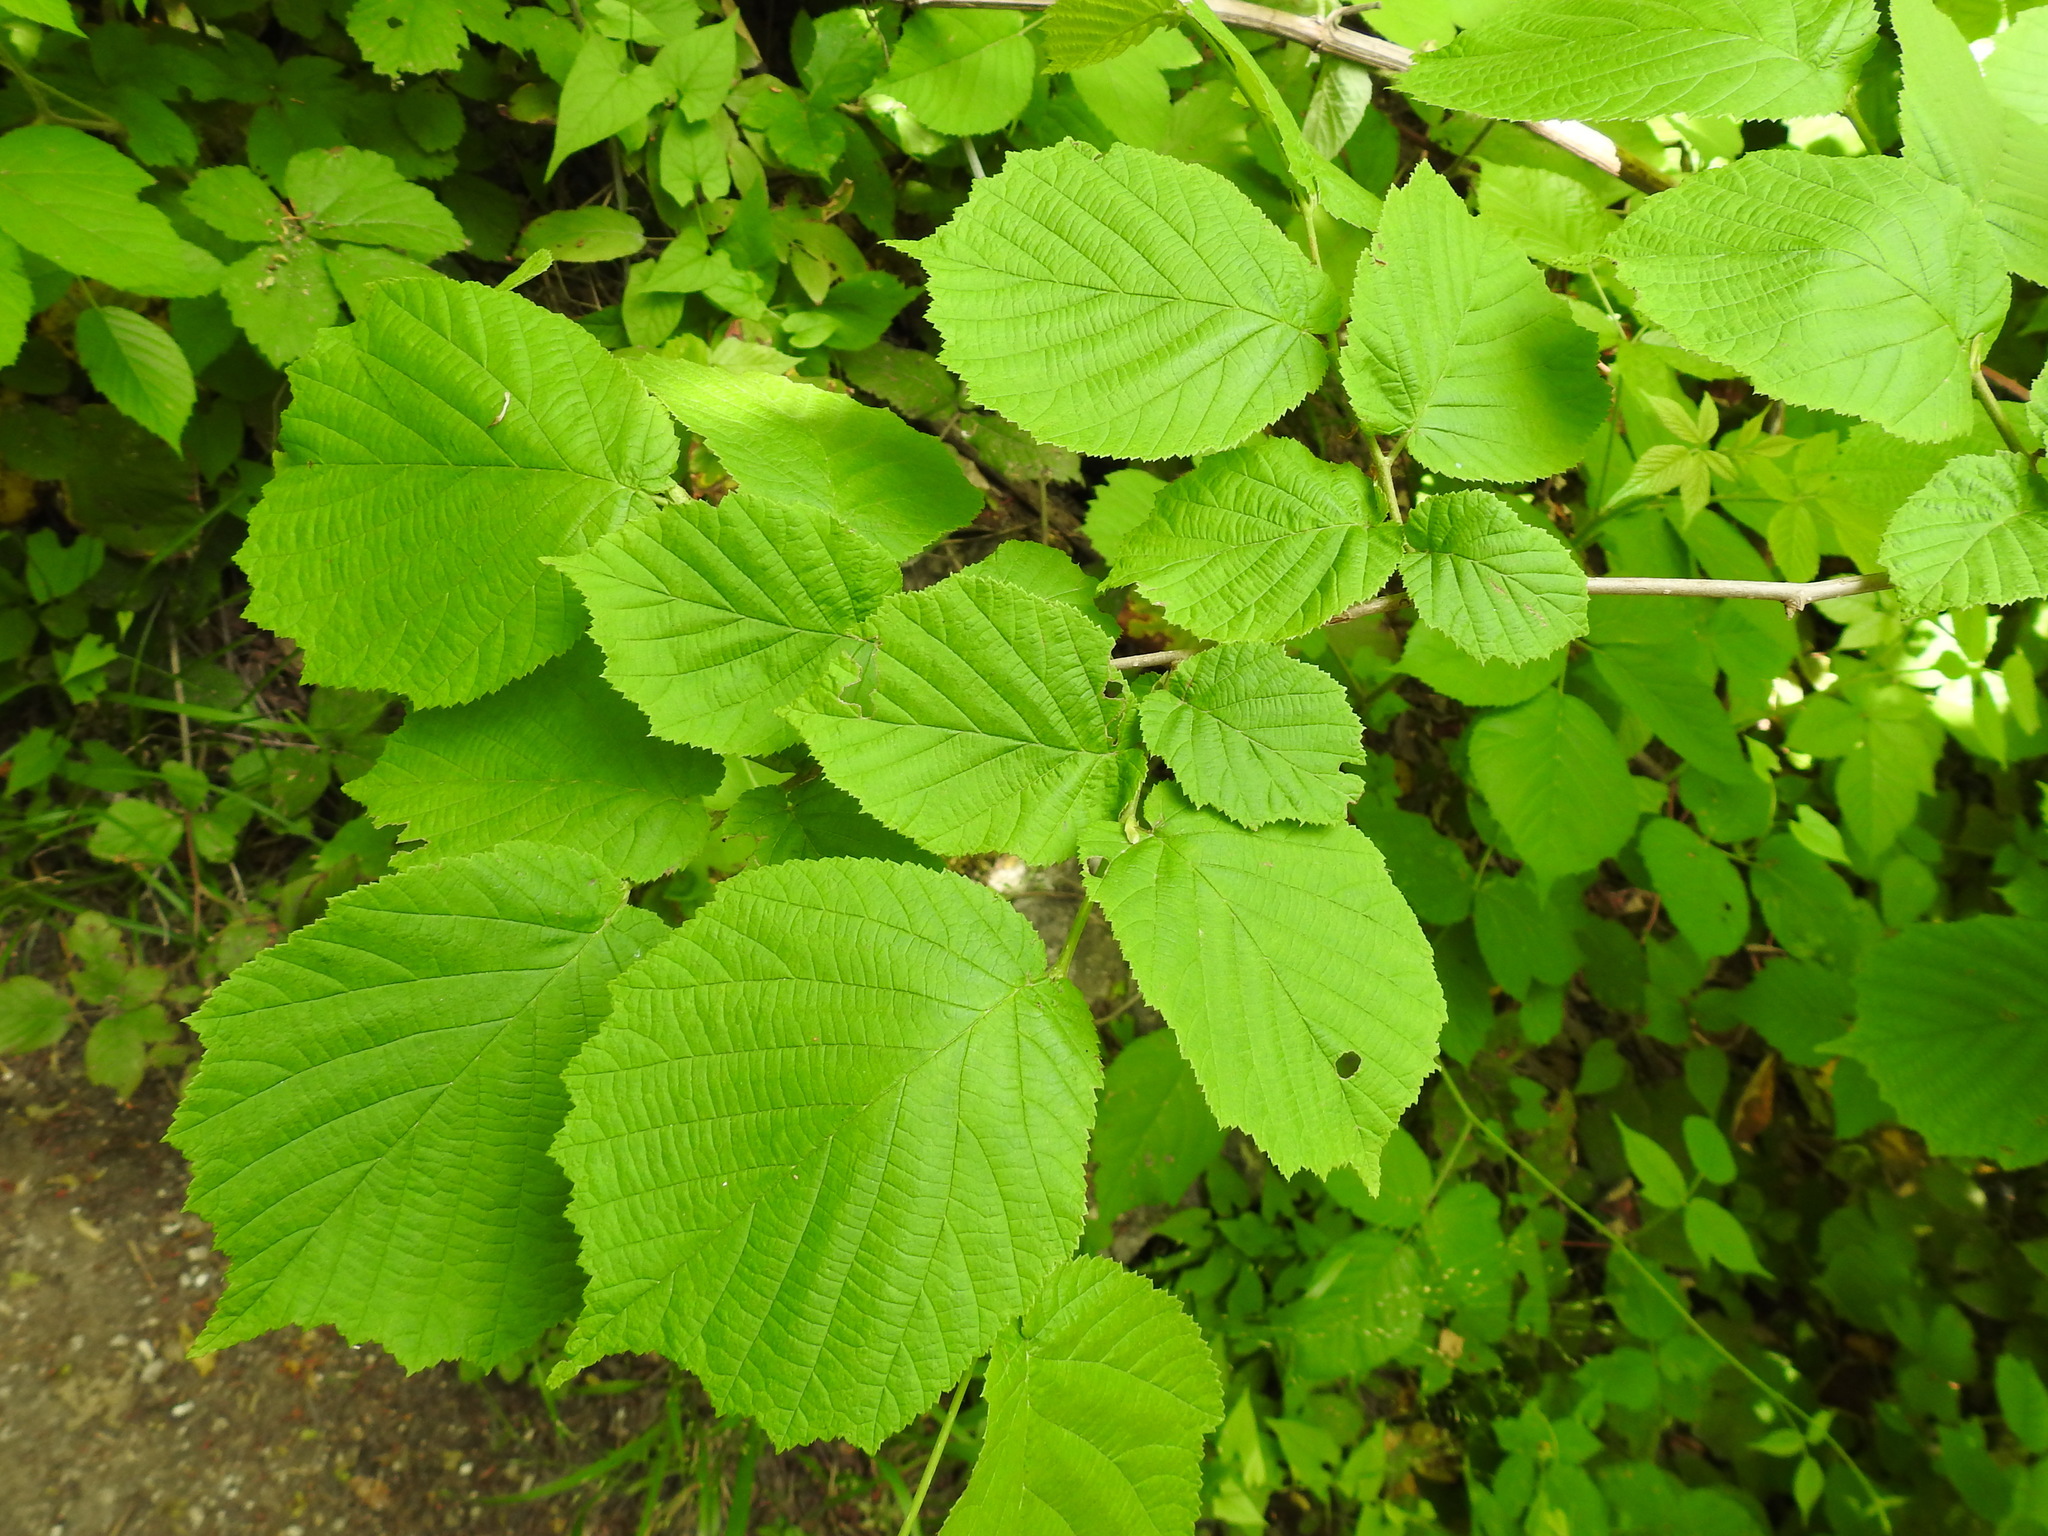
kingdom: Plantae
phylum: Tracheophyta
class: Magnoliopsida
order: Fagales
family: Betulaceae
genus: Corylus
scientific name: Corylus avellana
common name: European hazel
